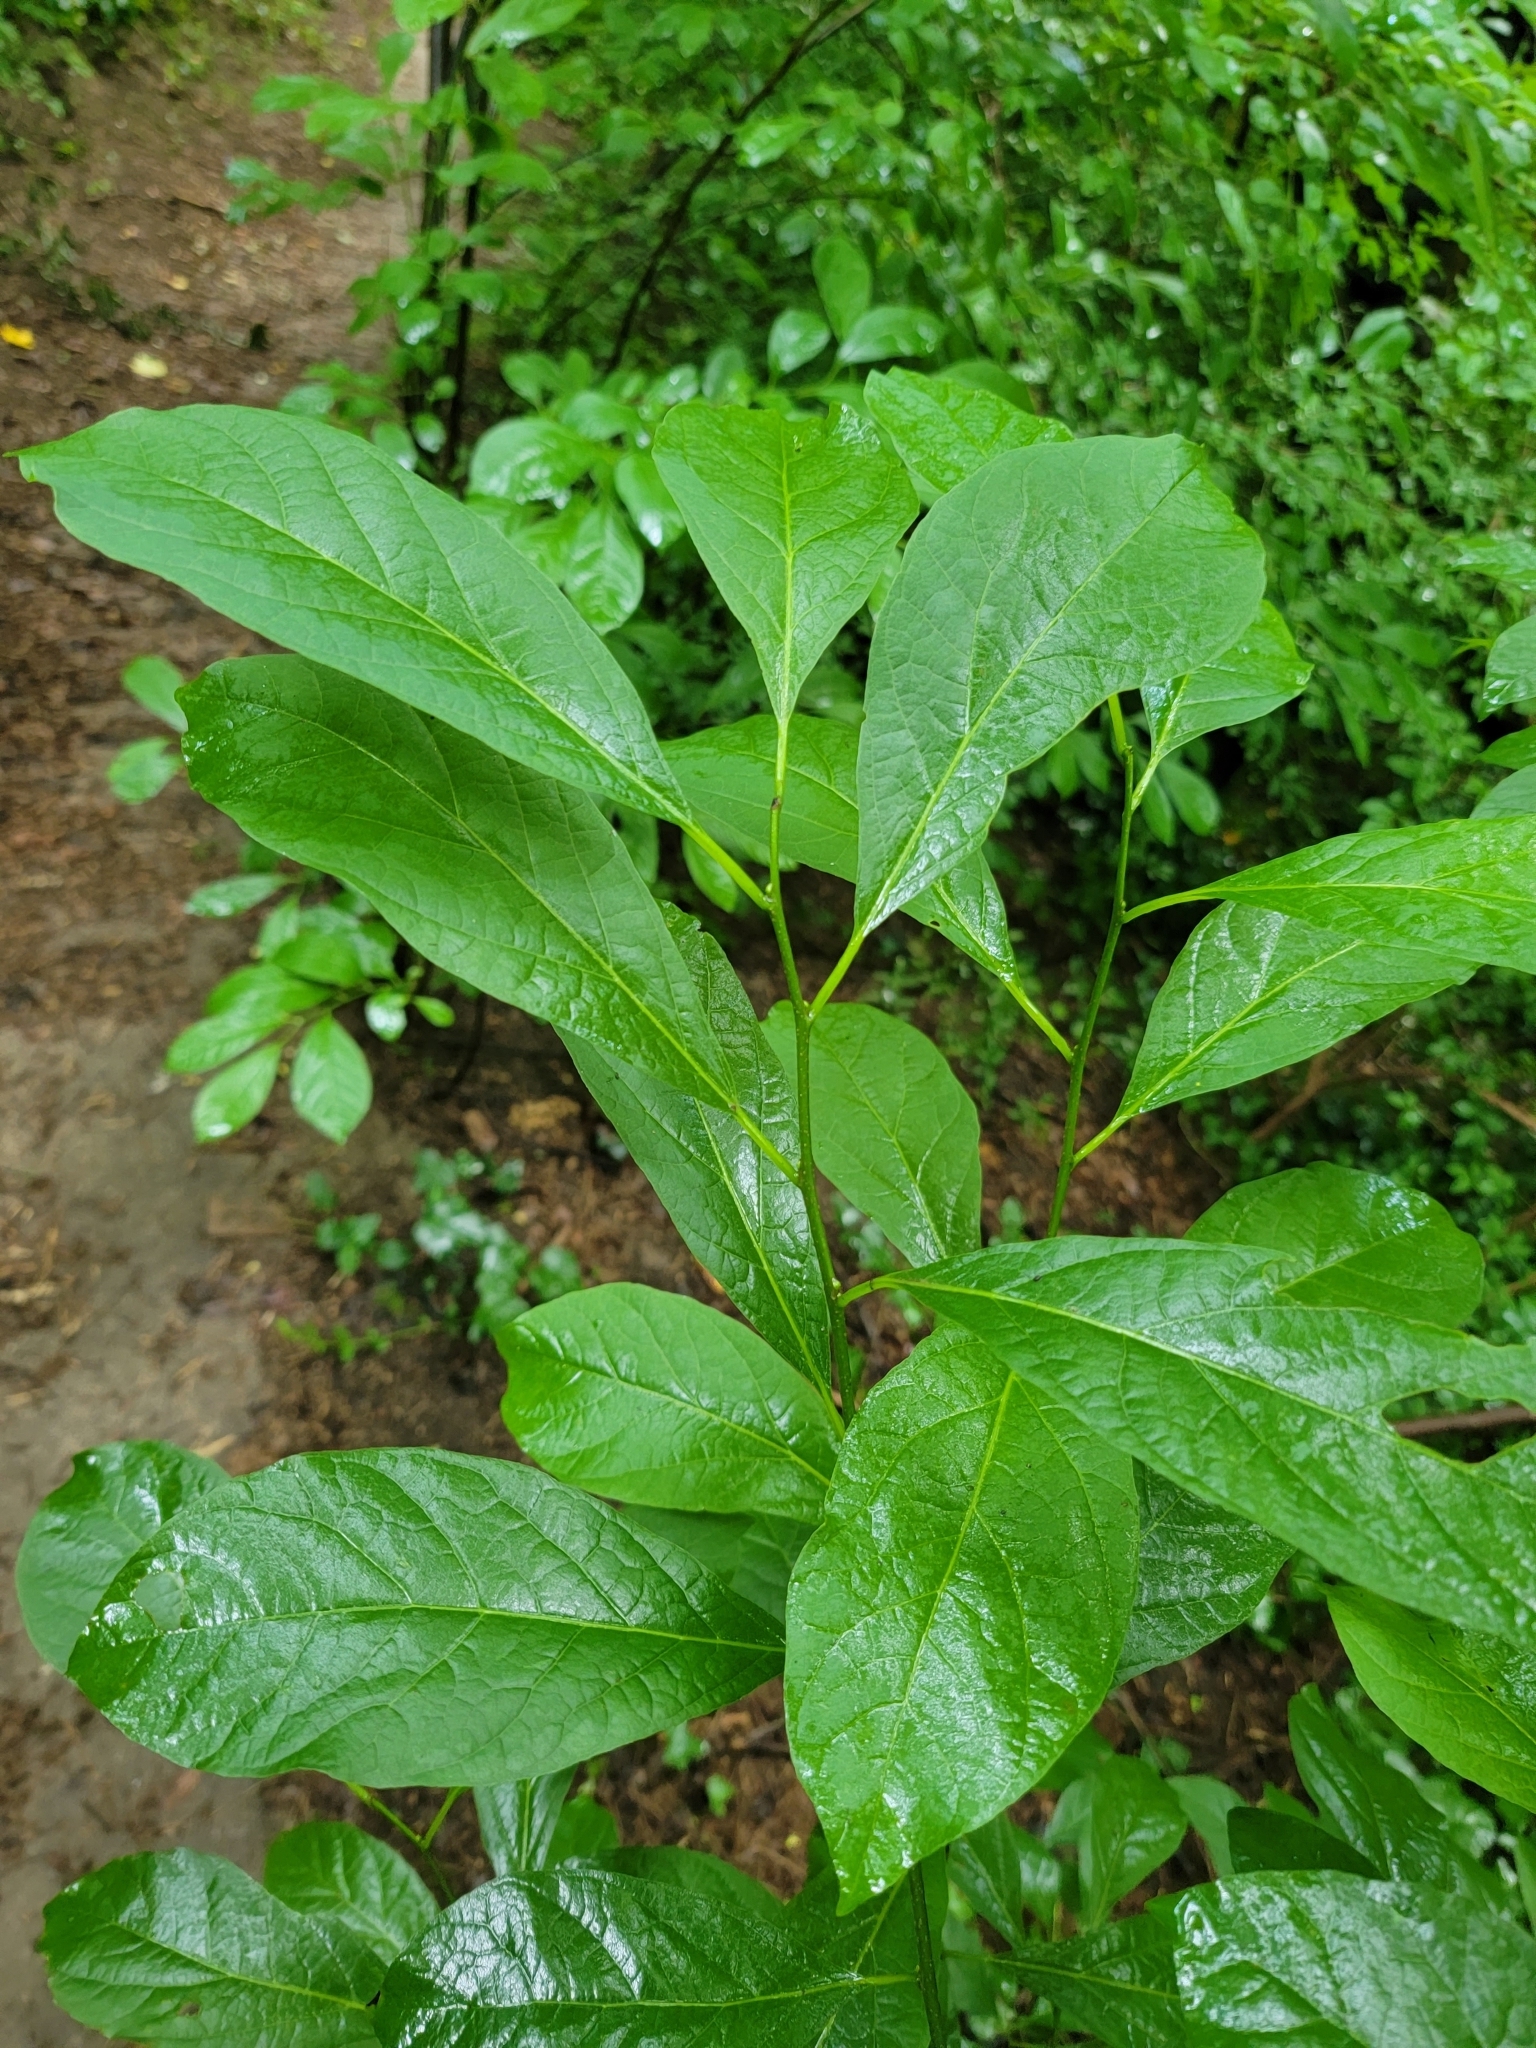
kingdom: Plantae
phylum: Tracheophyta
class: Magnoliopsida
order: Laurales
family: Lauraceae
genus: Lindera
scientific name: Lindera benzoin
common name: Spicebush
